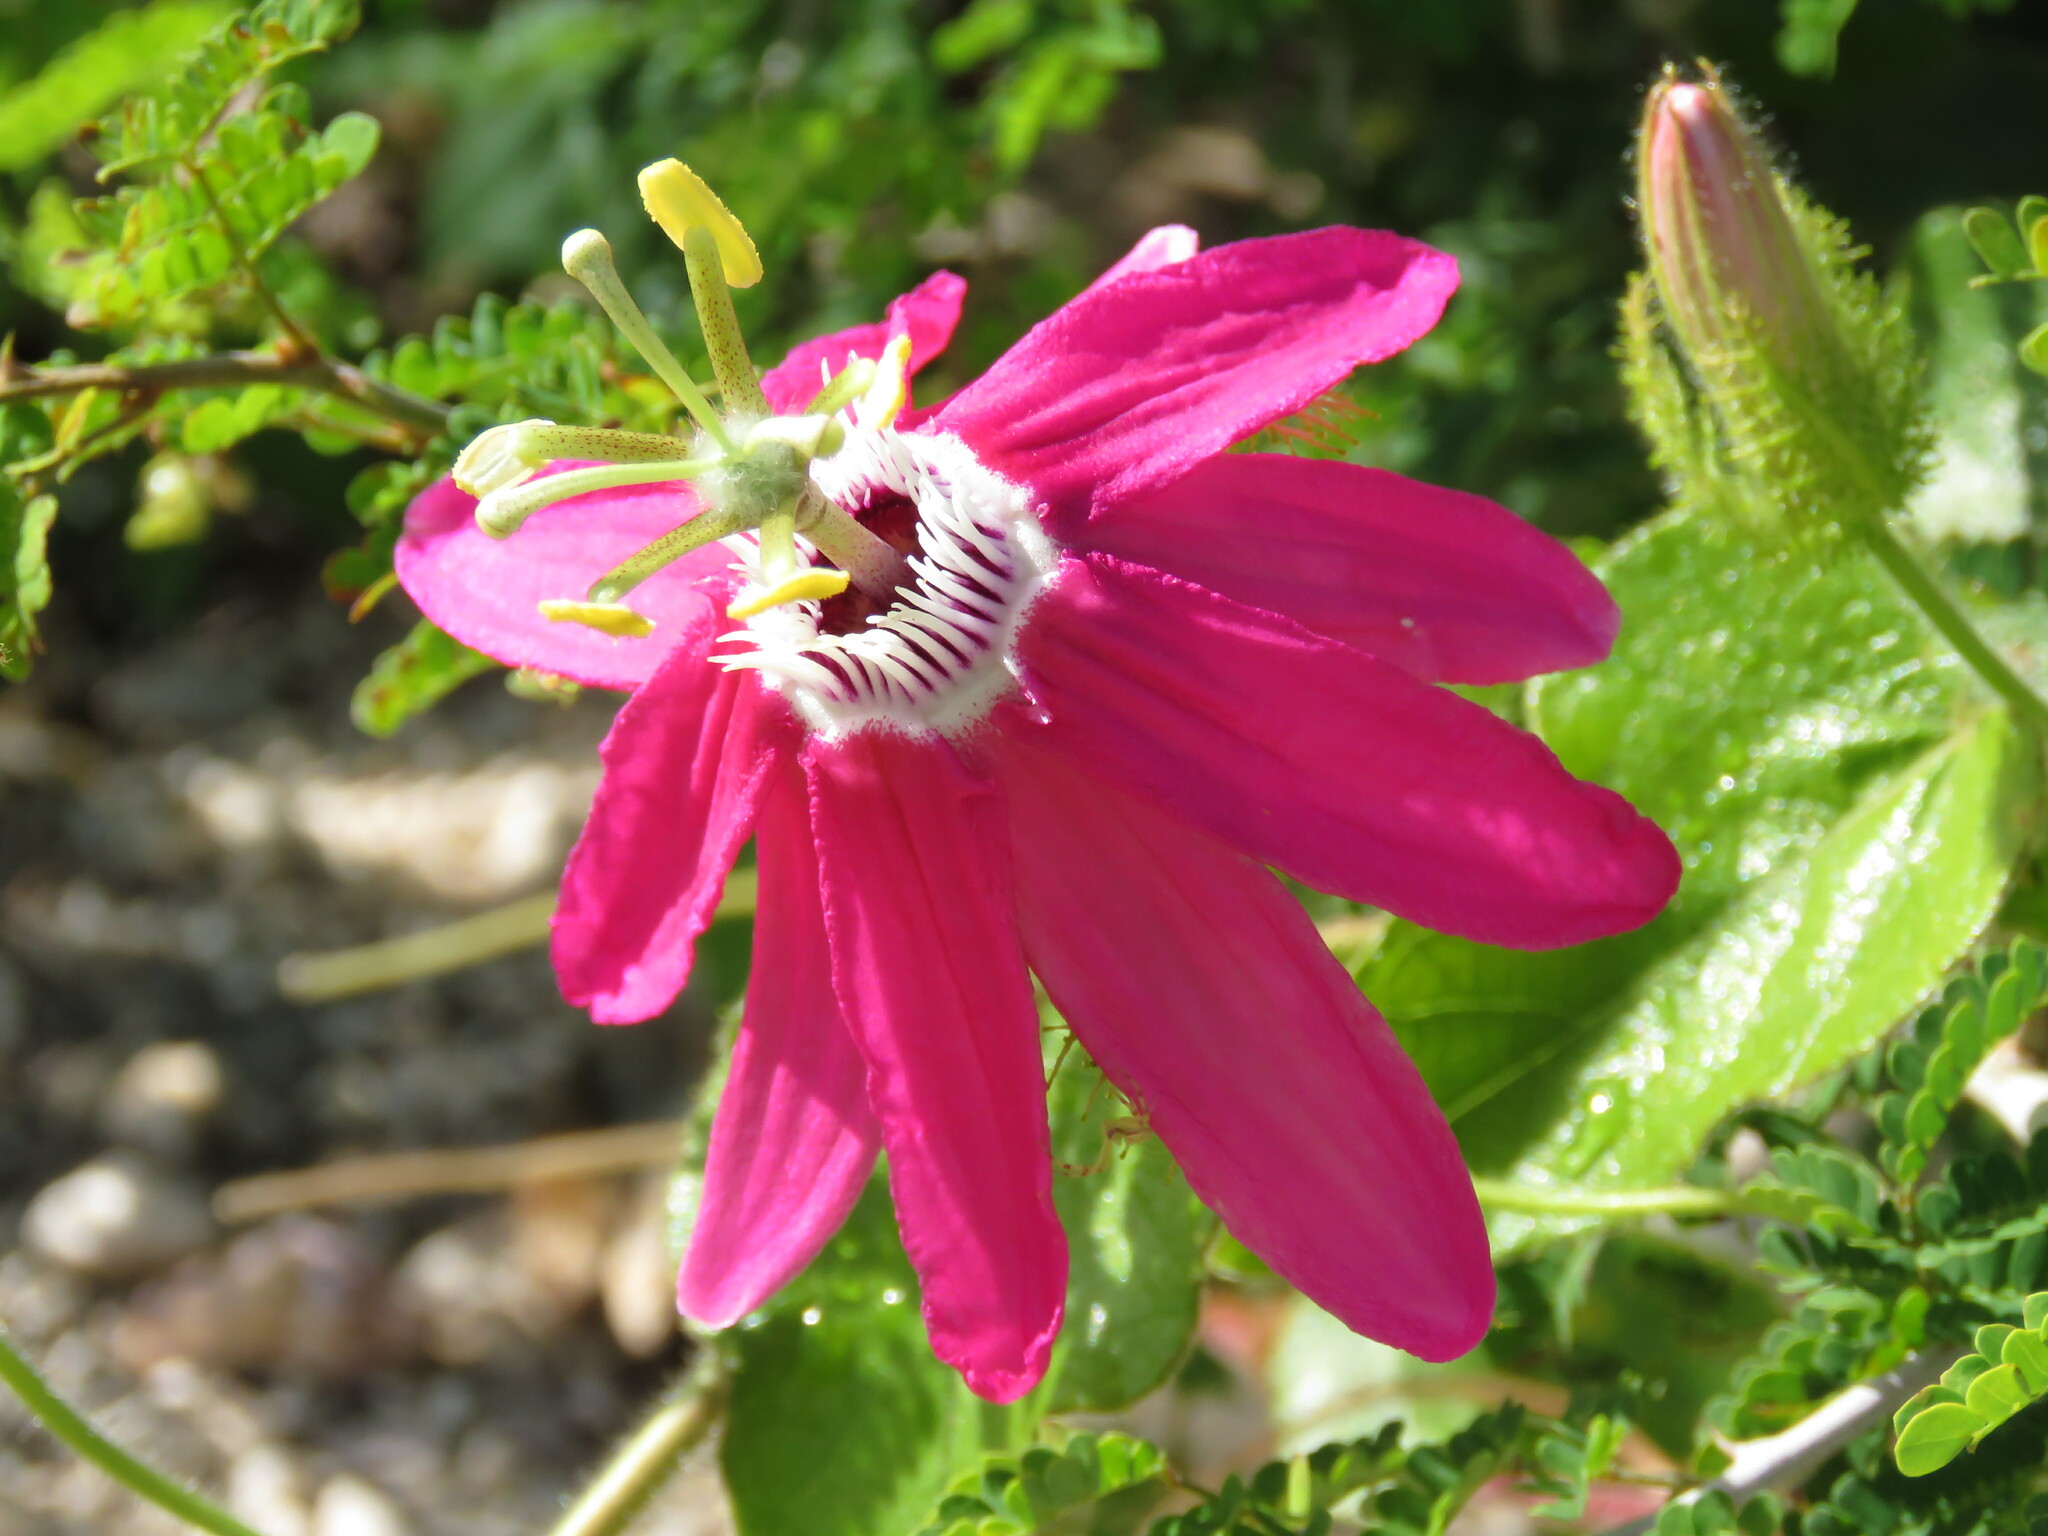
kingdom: Plantae
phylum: Tracheophyta
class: Magnoliopsida
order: Malpighiales
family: Passifloraceae
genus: Passiflora
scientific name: Passiflora sublanceolata
